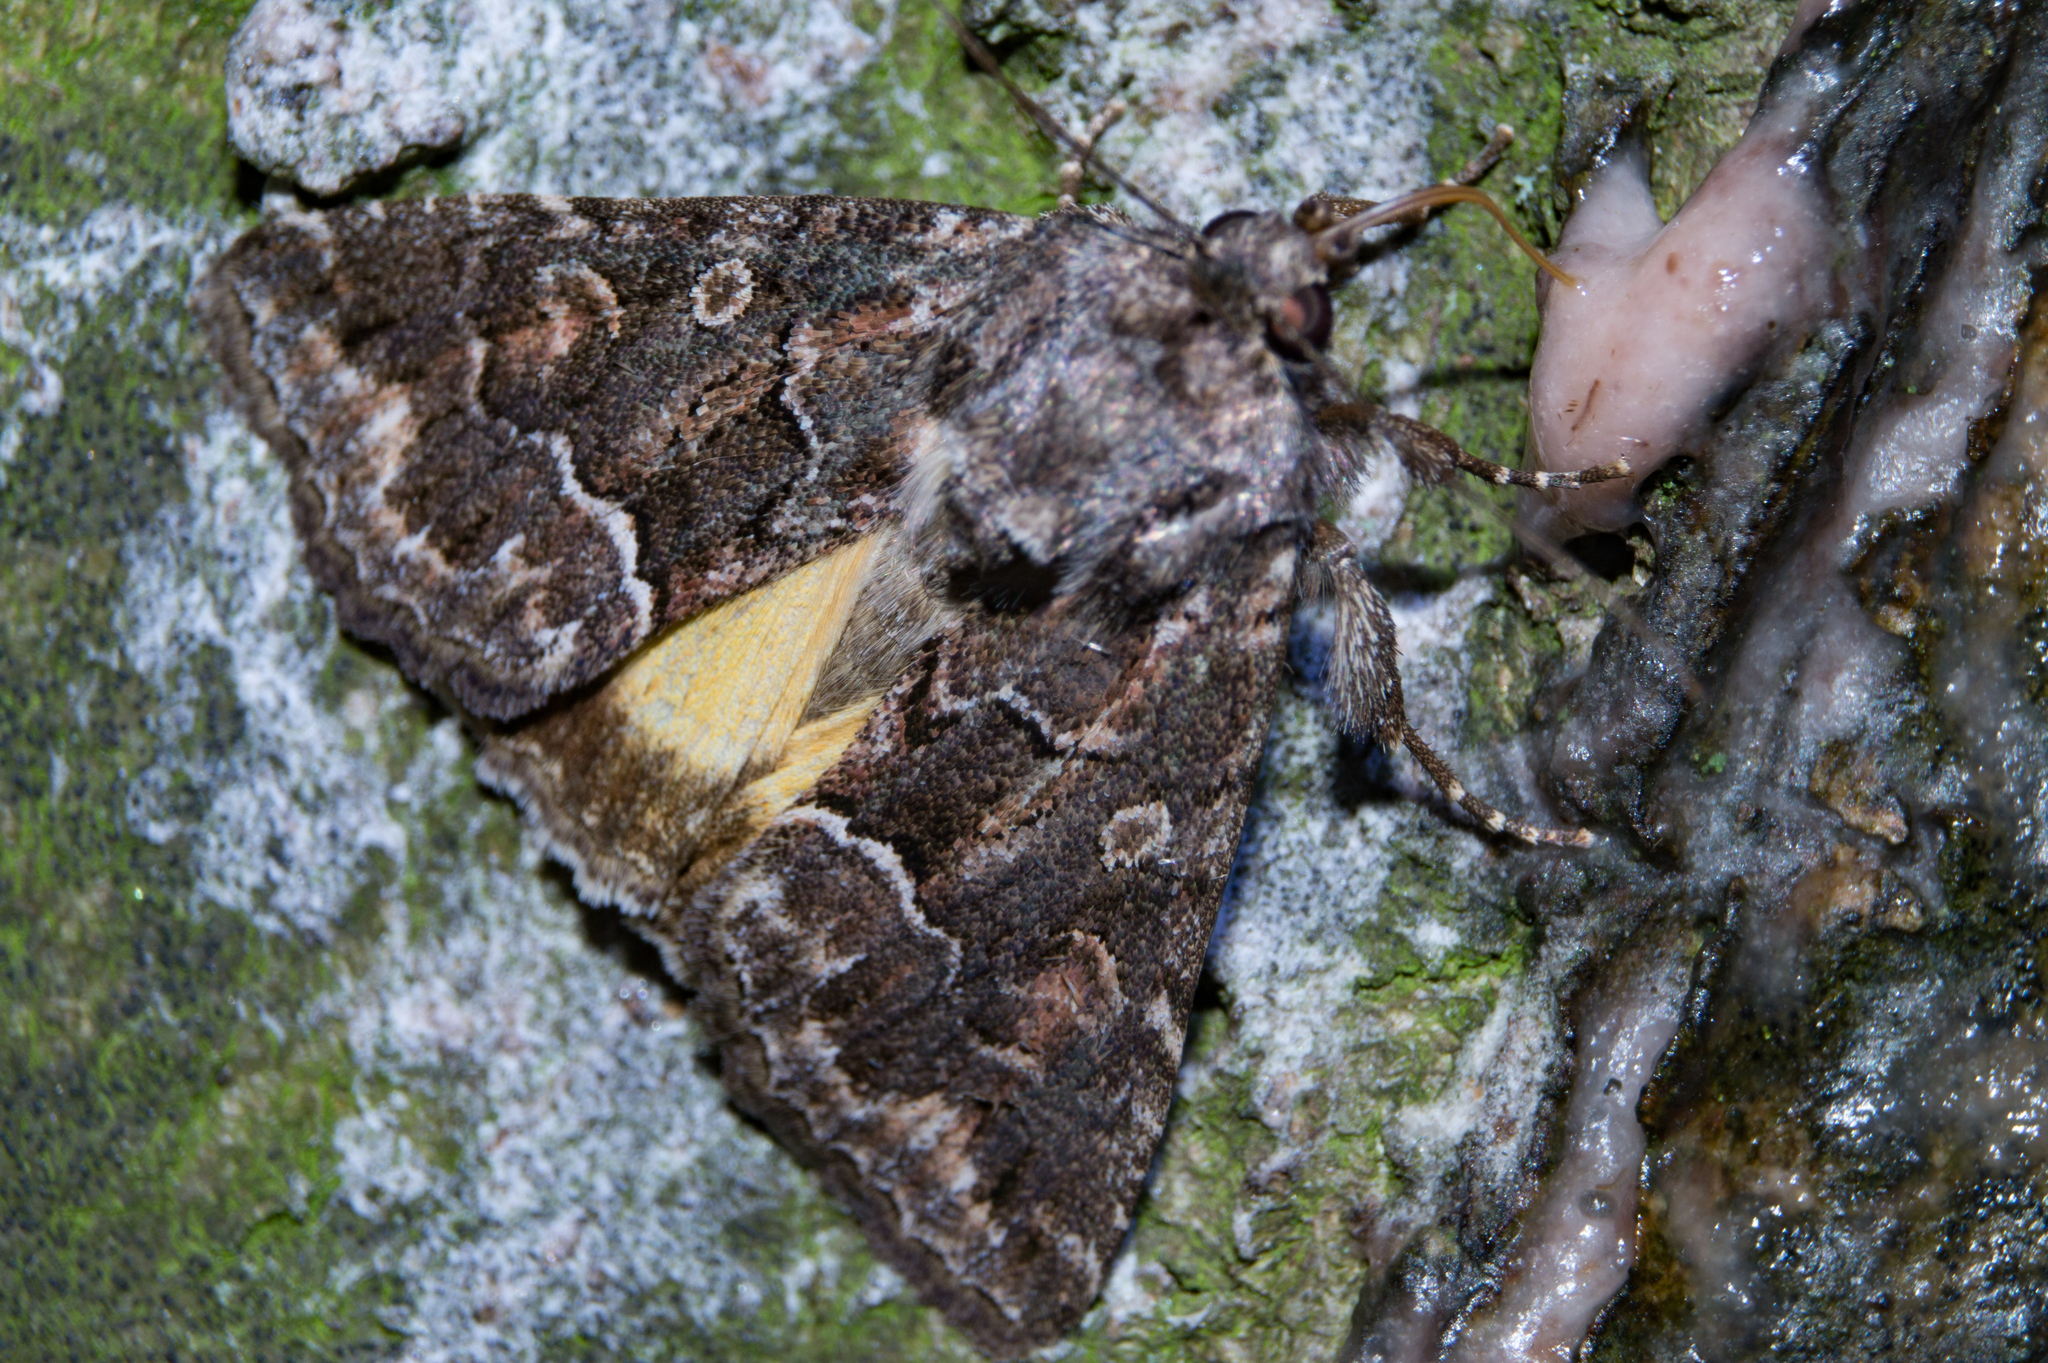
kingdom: Animalia
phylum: Arthropoda
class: Insecta
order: Lepidoptera
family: Noctuidae
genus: Thalpophila
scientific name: Thalpophila matura
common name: Straw underwing
